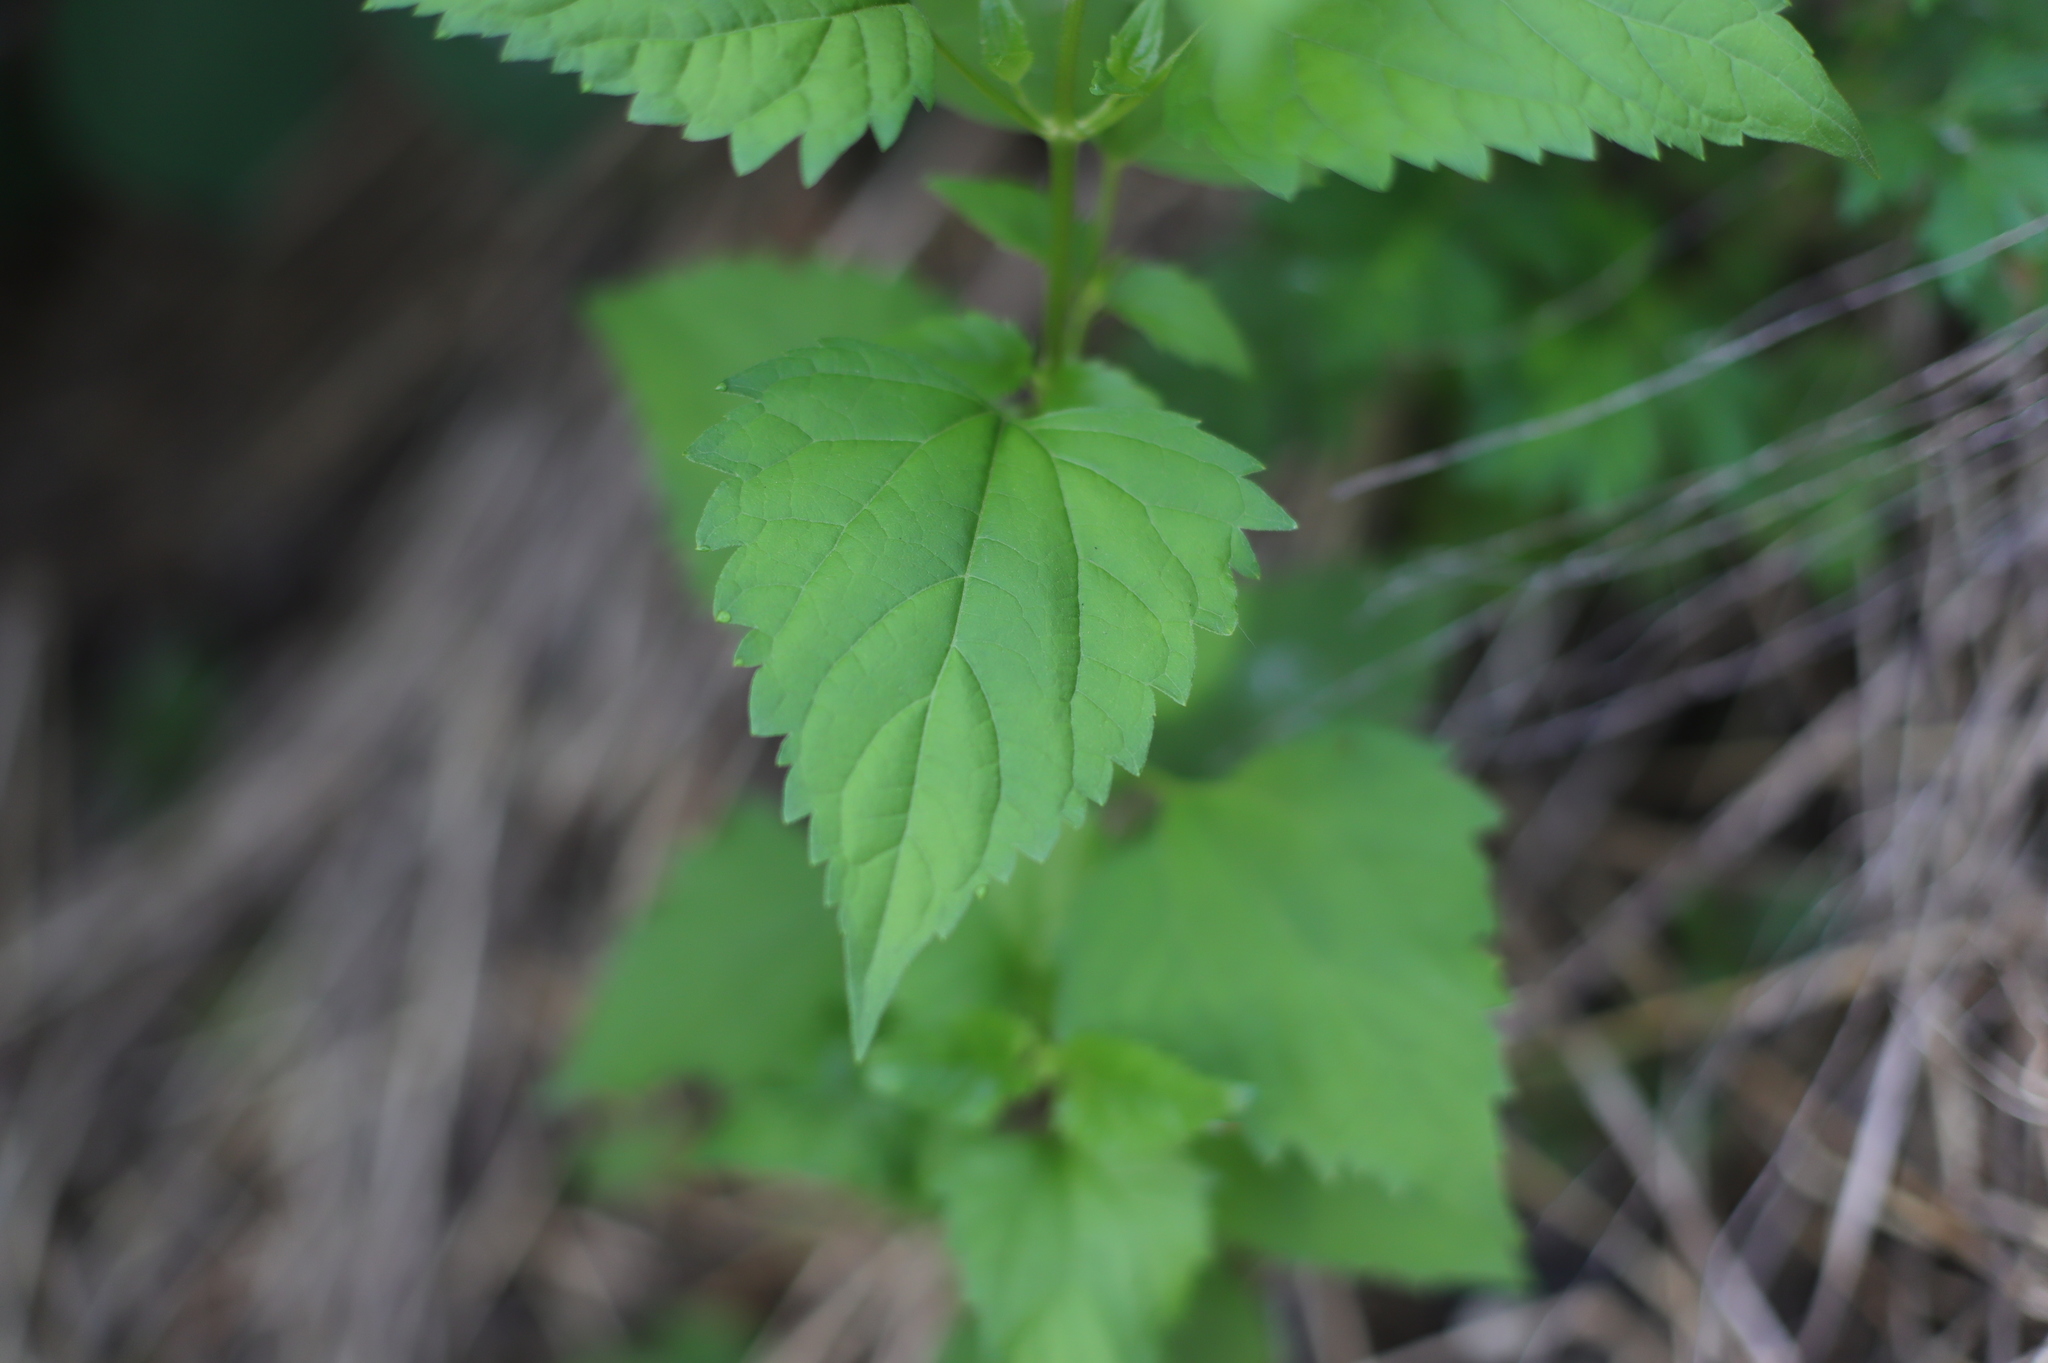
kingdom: Plantae
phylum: Tracheophyta
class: Magnoliopsida
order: Asterales
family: Asteraceae
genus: Ageratina
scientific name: Ageratina altissima
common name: White snakeroot
